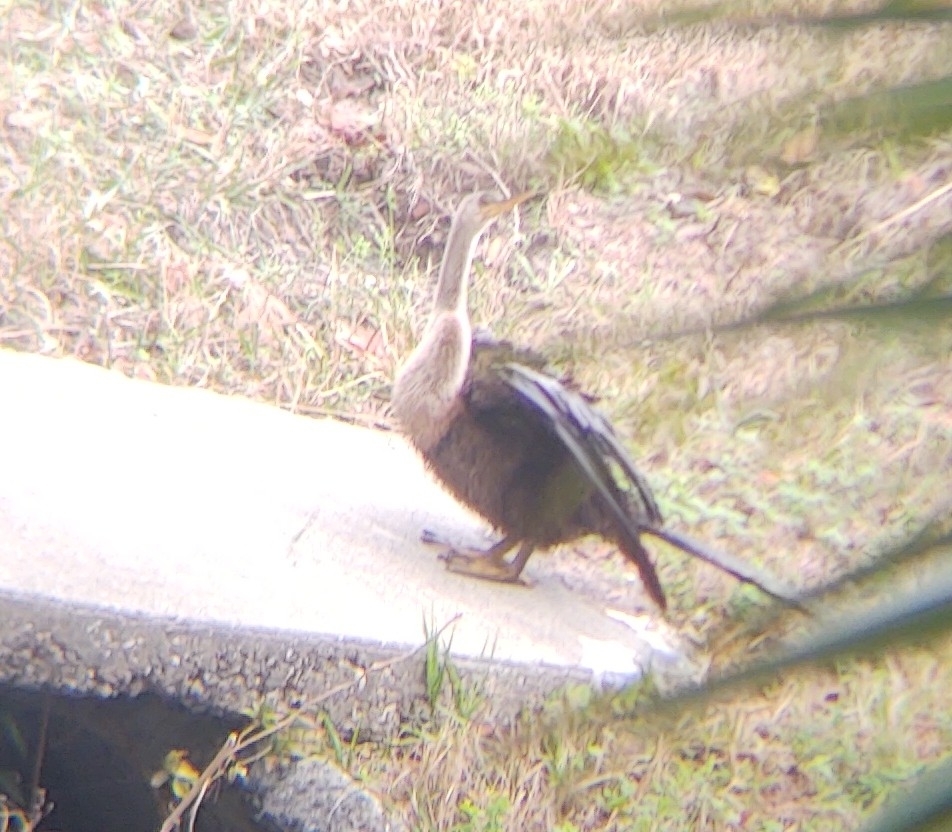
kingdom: Animalia
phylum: Chordata
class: Aves
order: Suliformes
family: Anhingidae
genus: Anhinga
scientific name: Anhinga anhinga
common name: Anhinga
